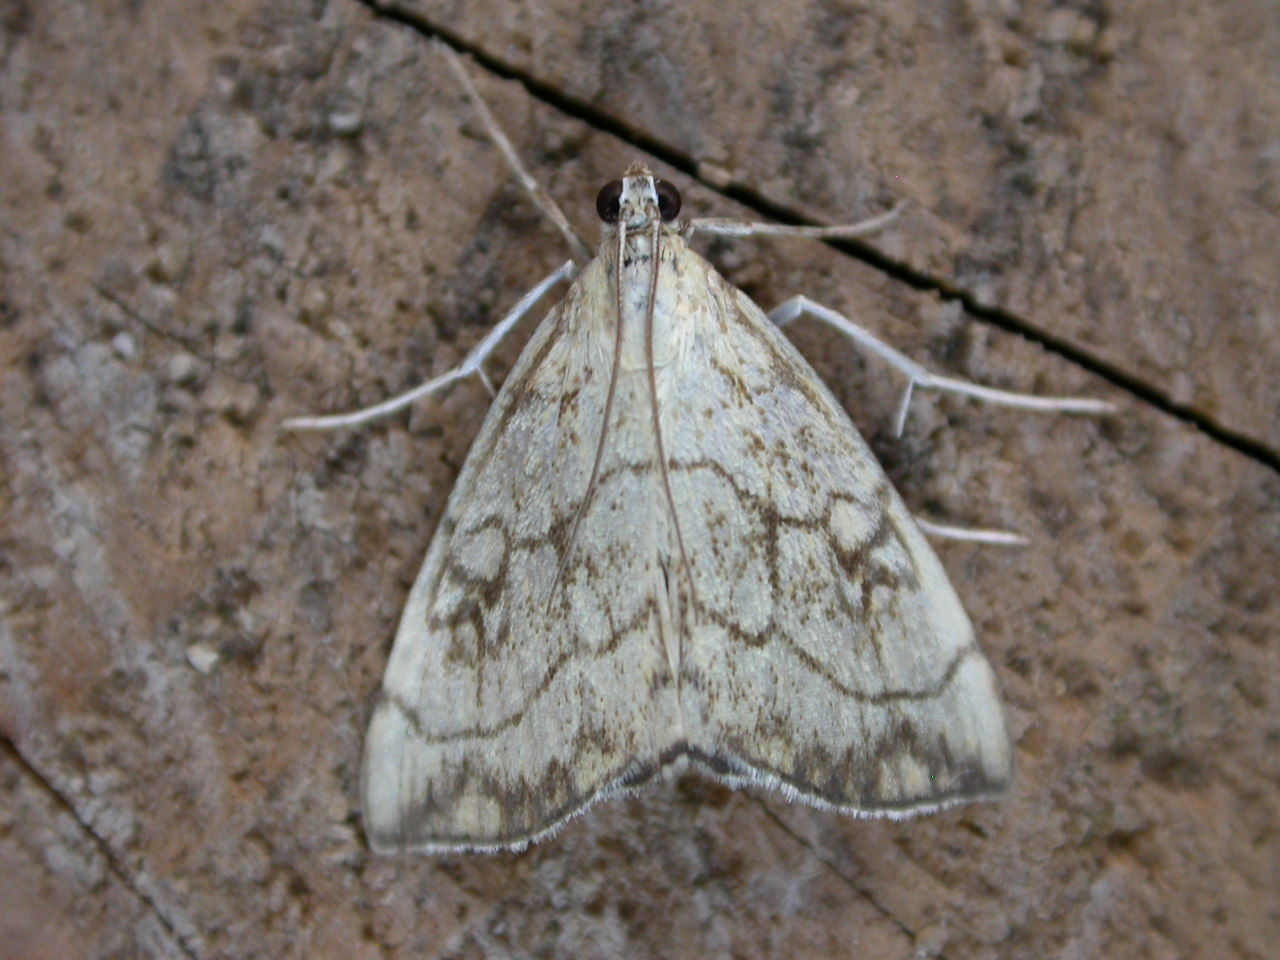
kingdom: Animalia
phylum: Arthropoda
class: Insecta
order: Lepidoptera
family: Crambidae
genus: Evergestis
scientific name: Evergestis pallidata
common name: Chequered pearl
